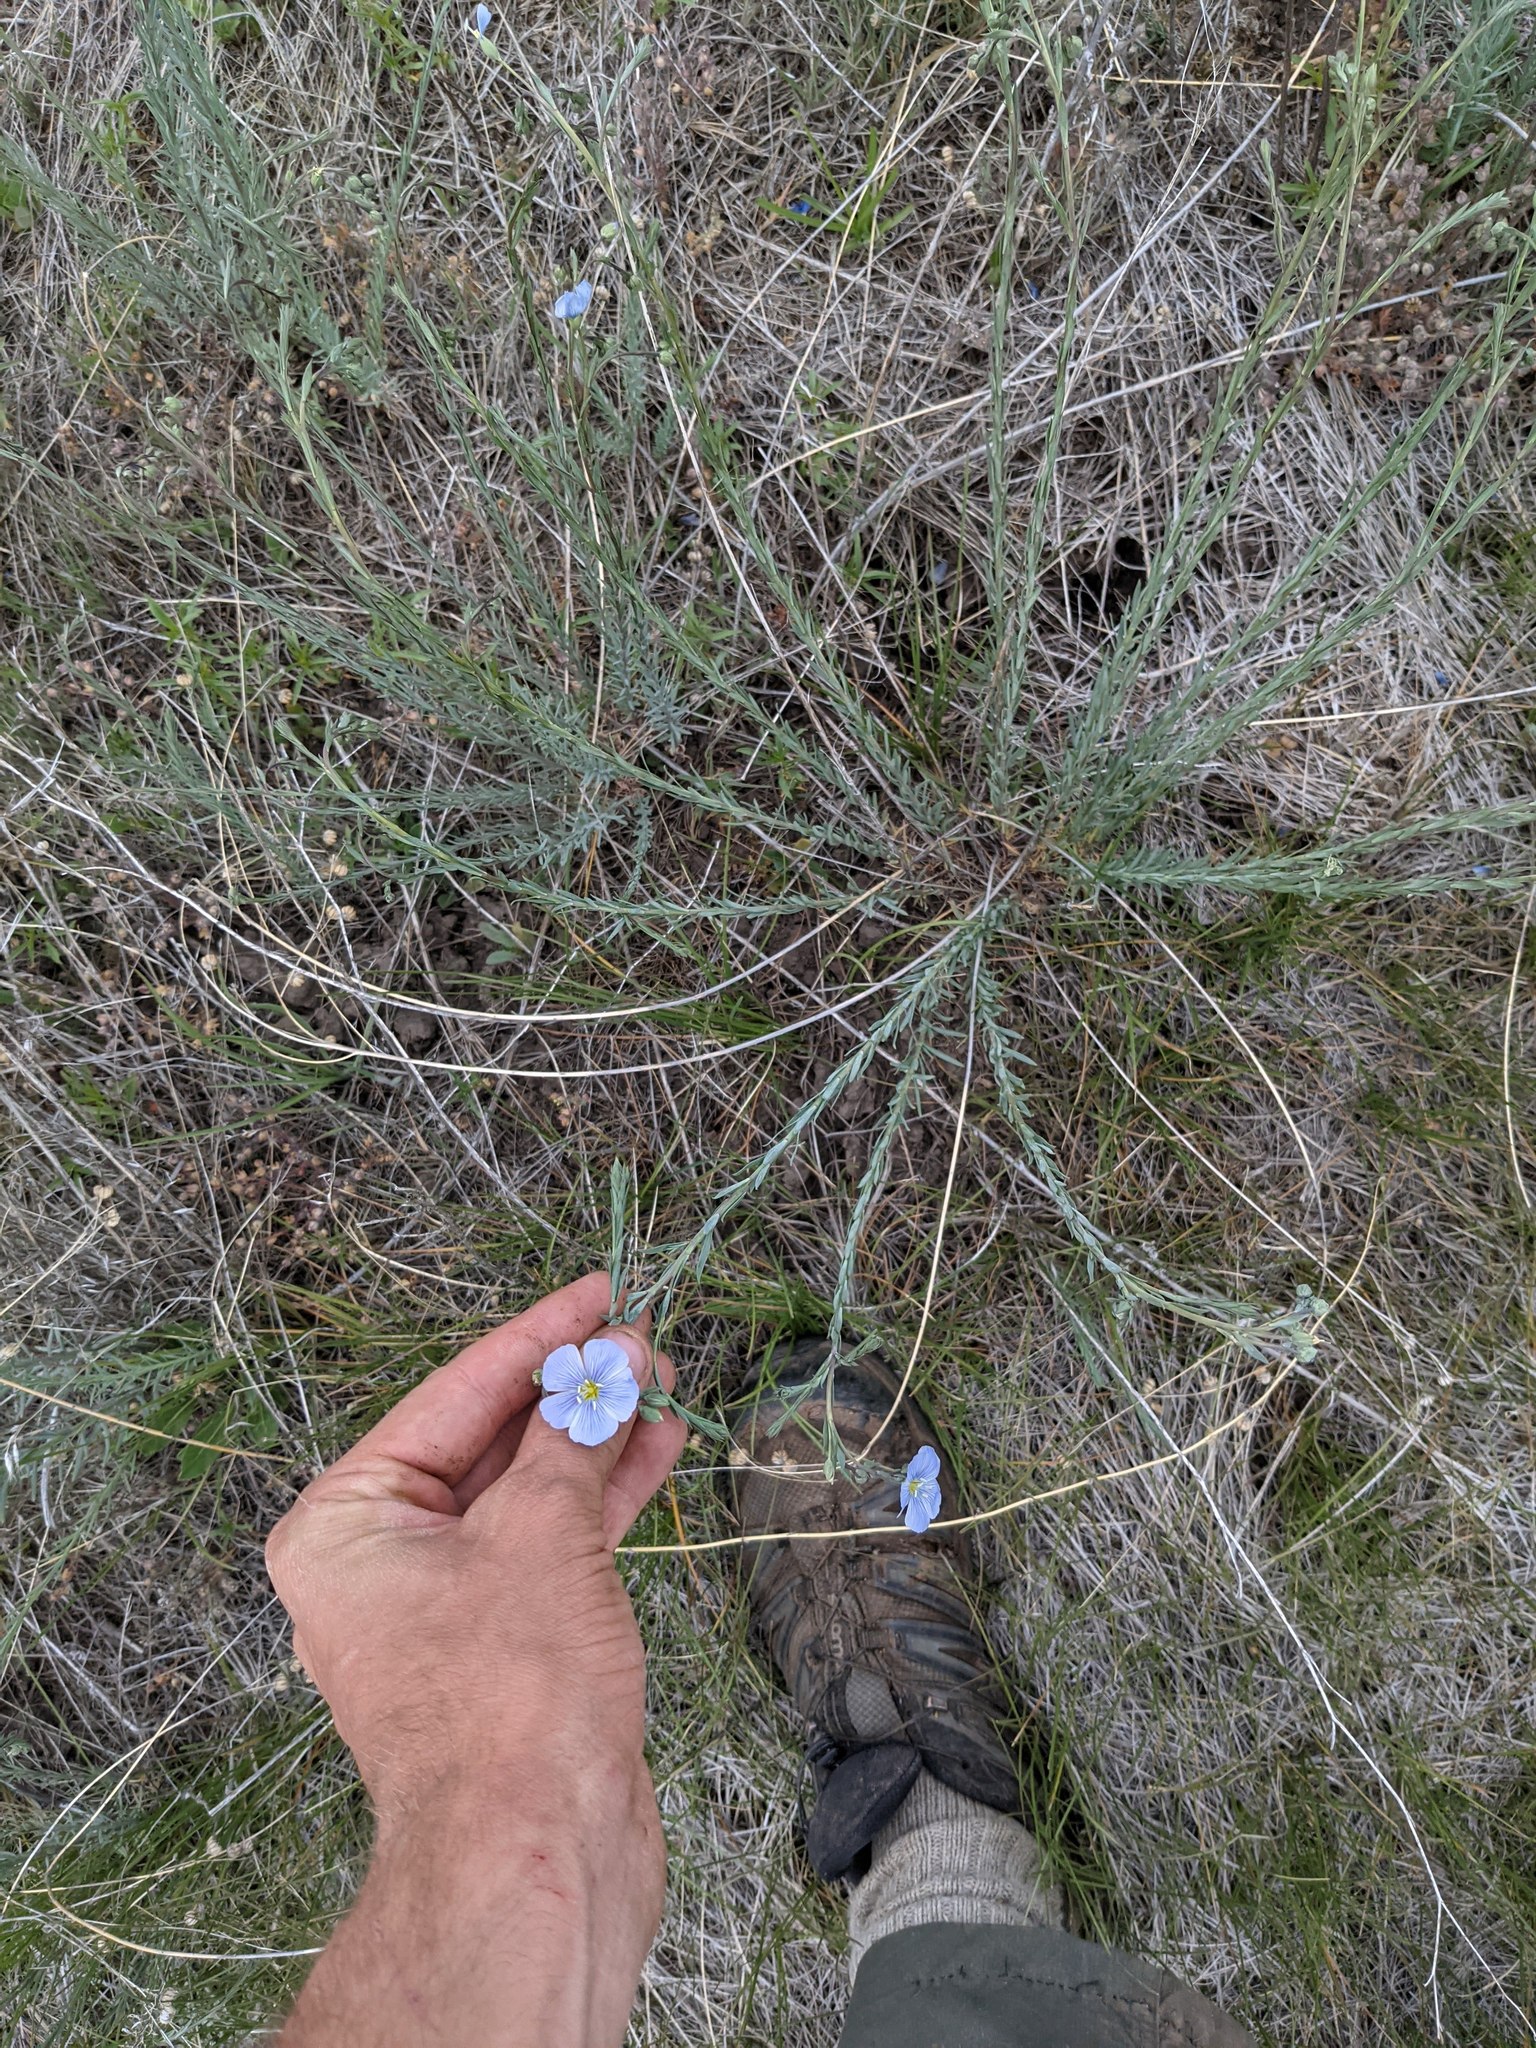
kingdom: Plantae
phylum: Tracheophyta
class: Magnoliopsida
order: Malpighiales
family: Linaceae
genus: Linum
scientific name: Linum lewisii
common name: Prairie flax
